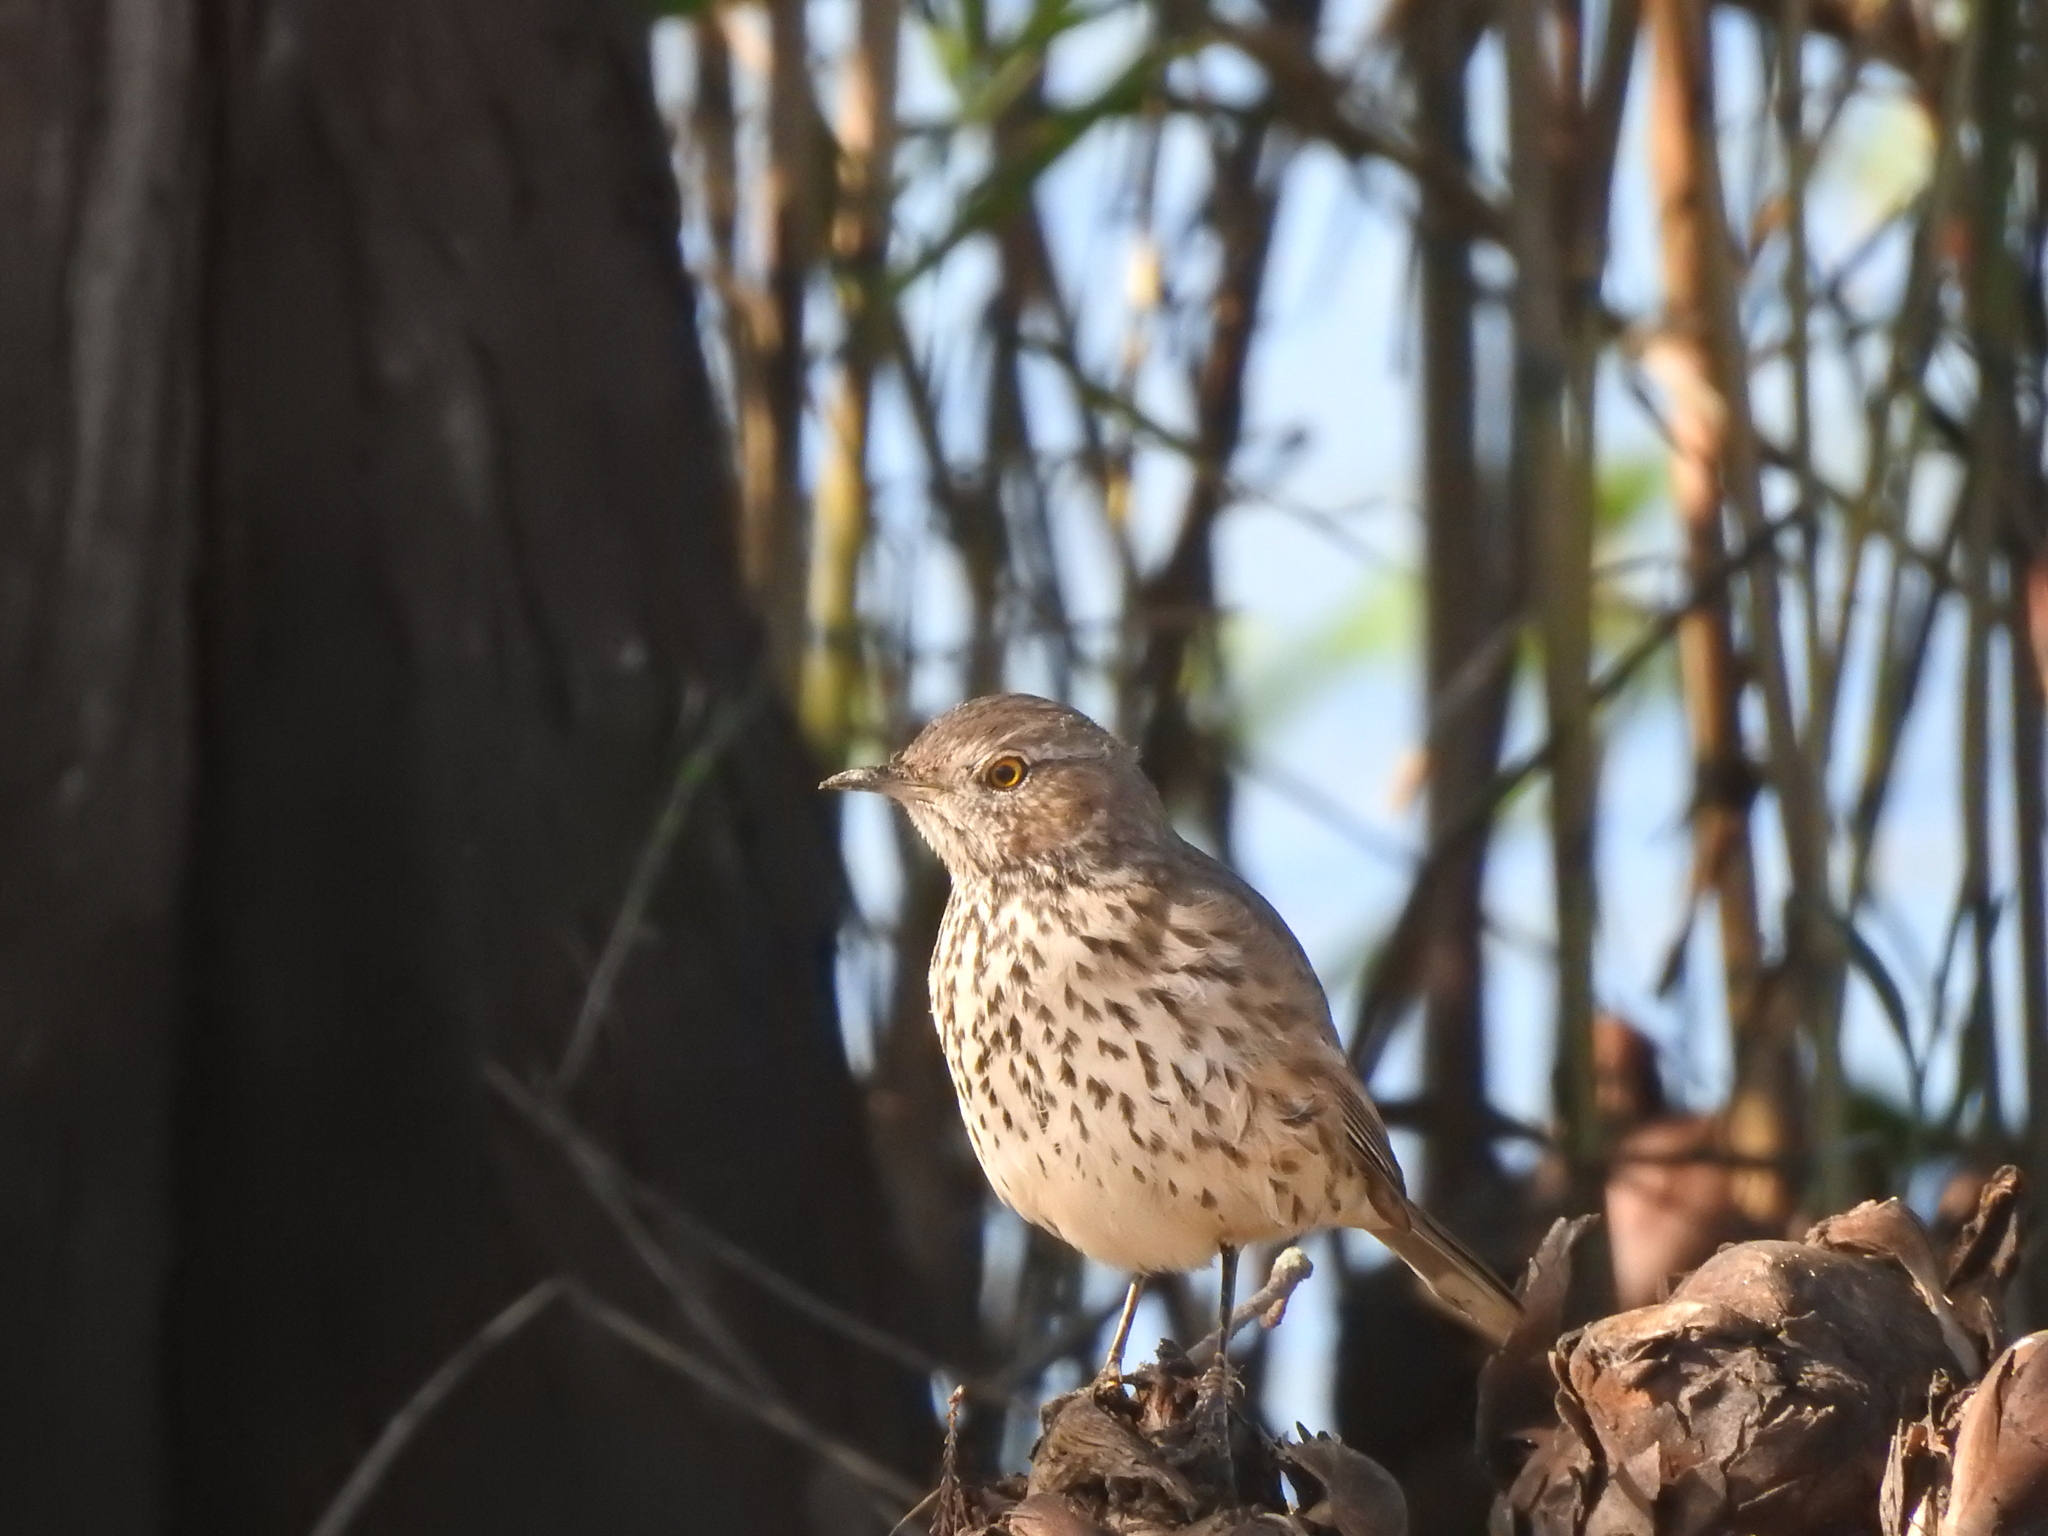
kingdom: Animalia
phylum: Chordata
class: Aves
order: Passeriformes
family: Mimidae
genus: Oreoscoptes
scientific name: Oreoscoptes montanus
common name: Sage thrasher
